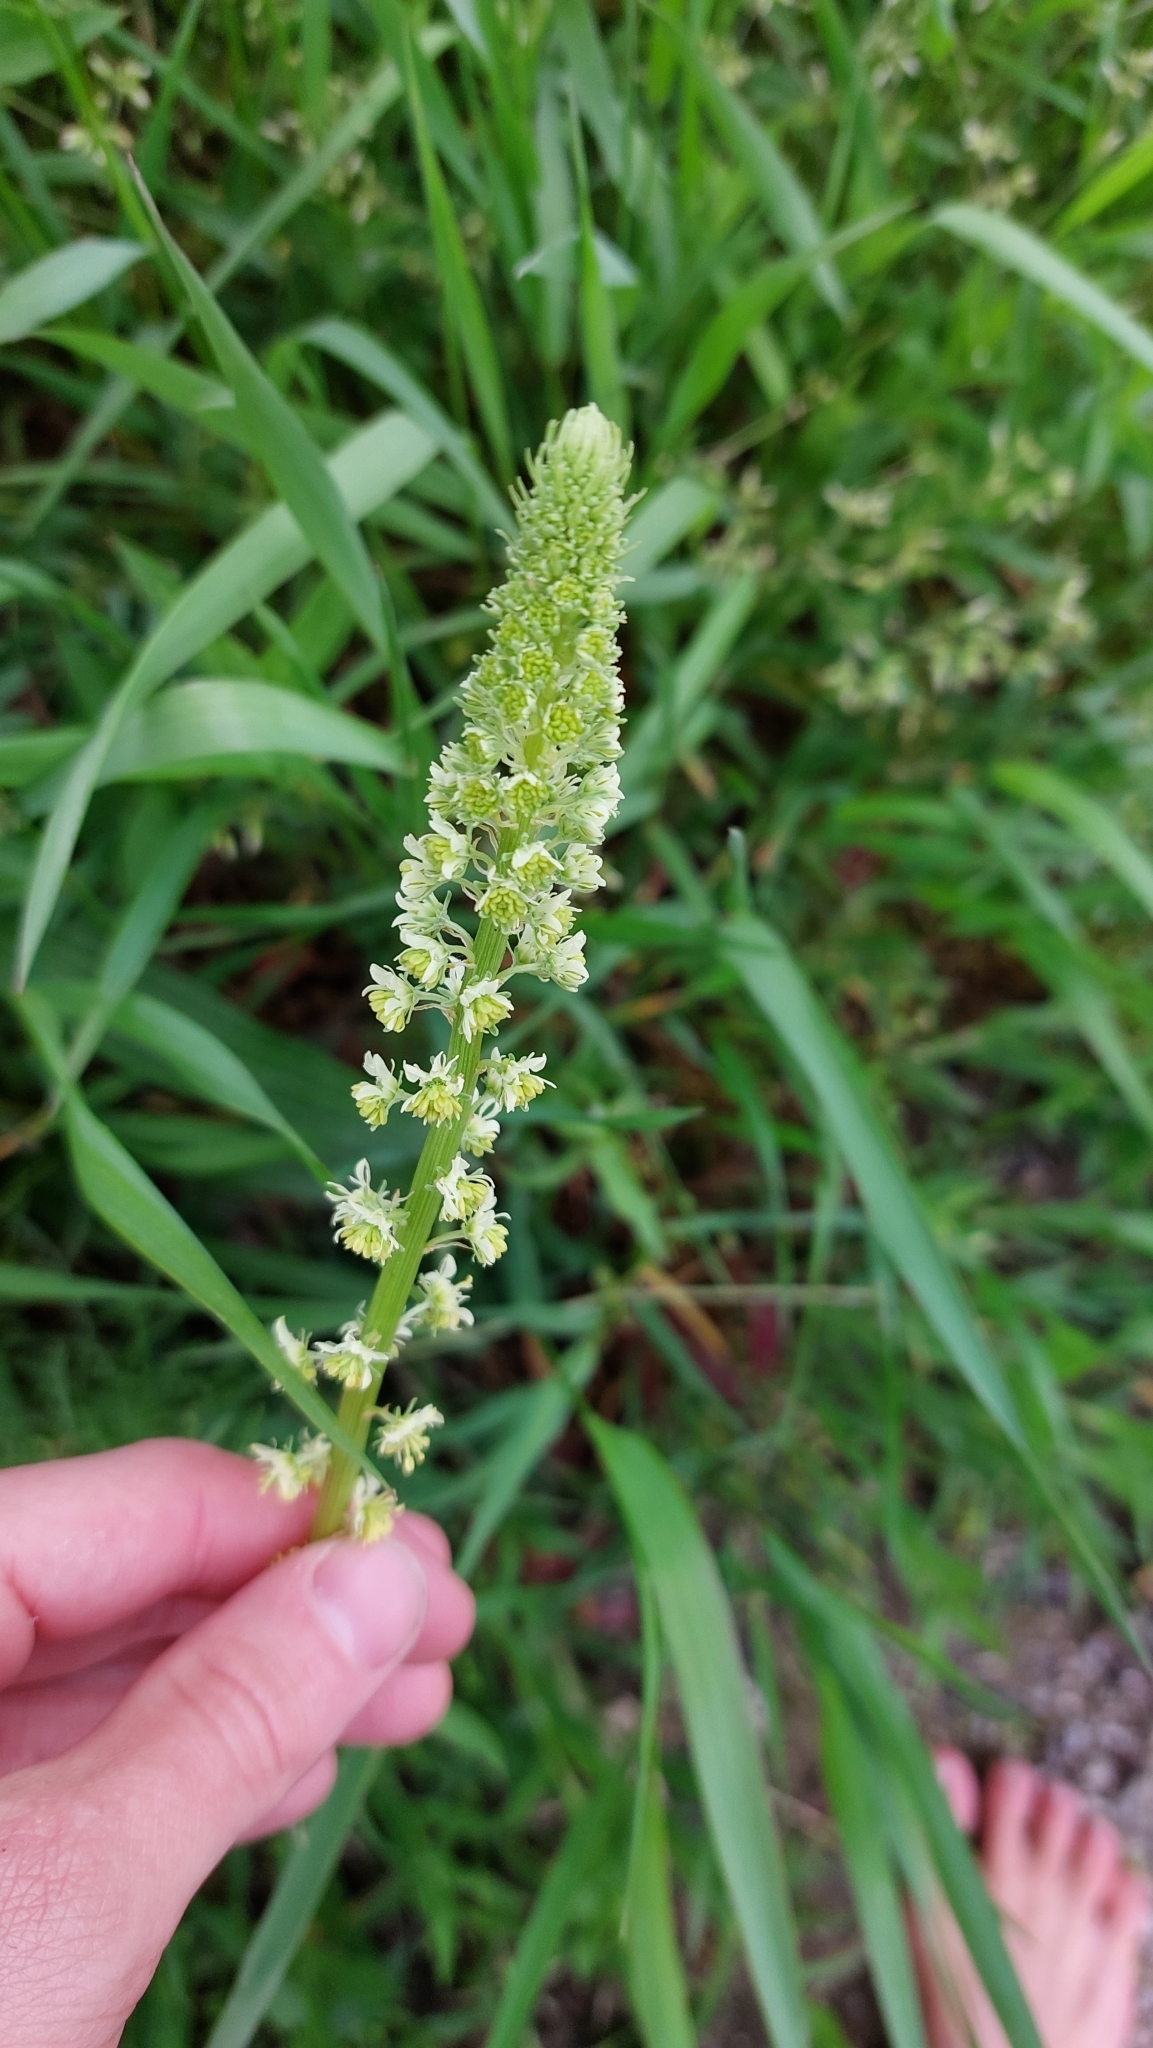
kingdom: Plantae
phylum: Tracheophyta
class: Magnoliopsida
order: Brassicales
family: Resedaceae
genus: Reseda
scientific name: Reseda lutea
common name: Wild mignonette
